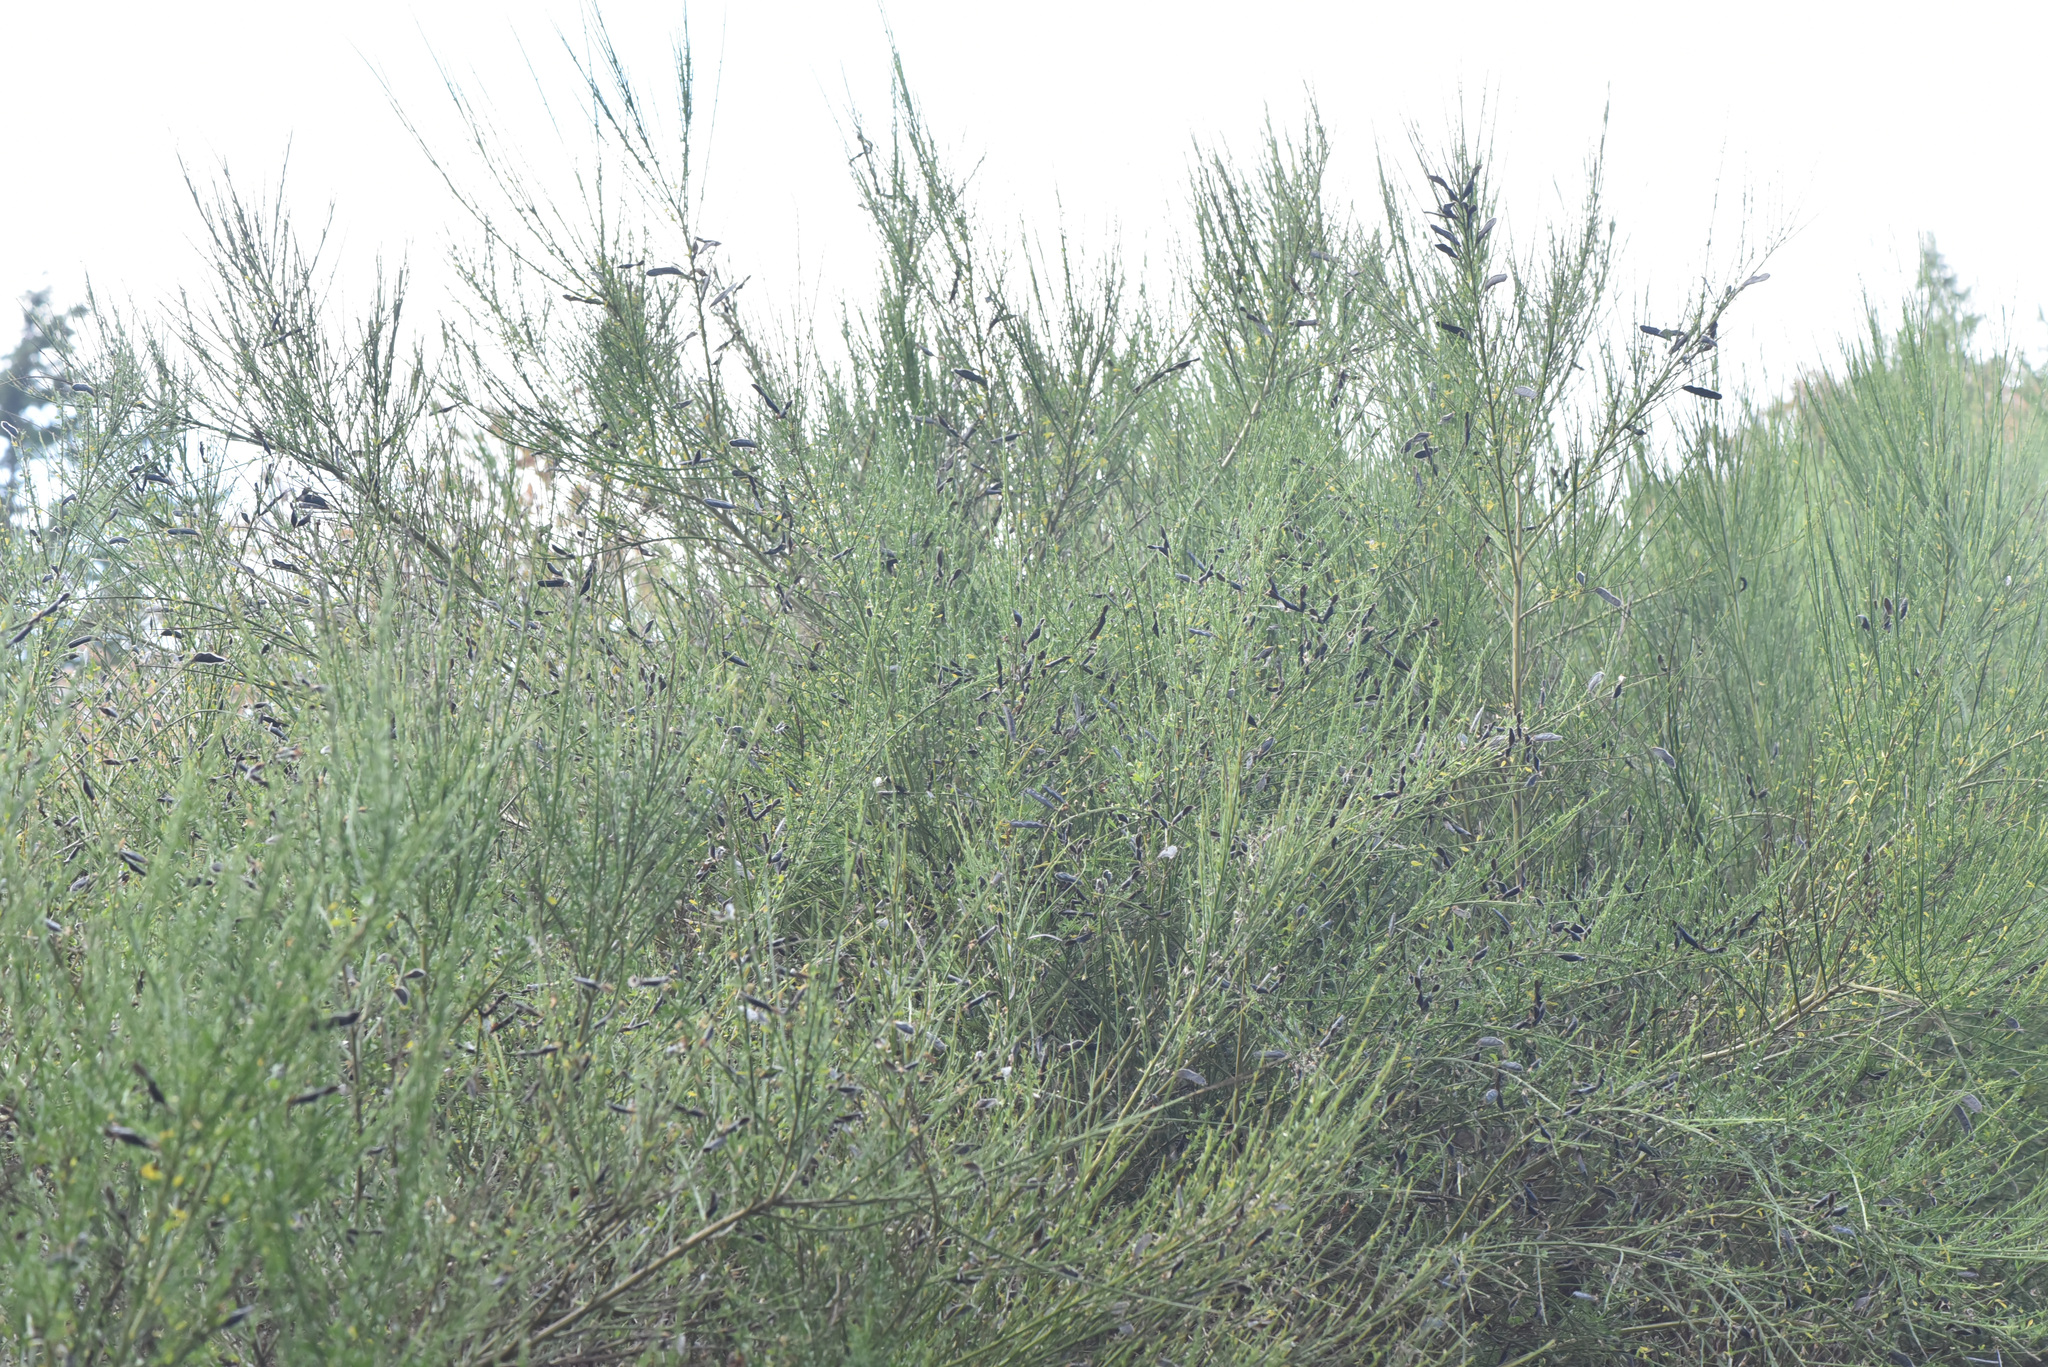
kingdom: Plantae
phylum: Tracheophyta
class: Magnoliopsida
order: Fabales
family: Fabaceae
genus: Cytisus
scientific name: Cytisus scoparius
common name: Scotch broom
